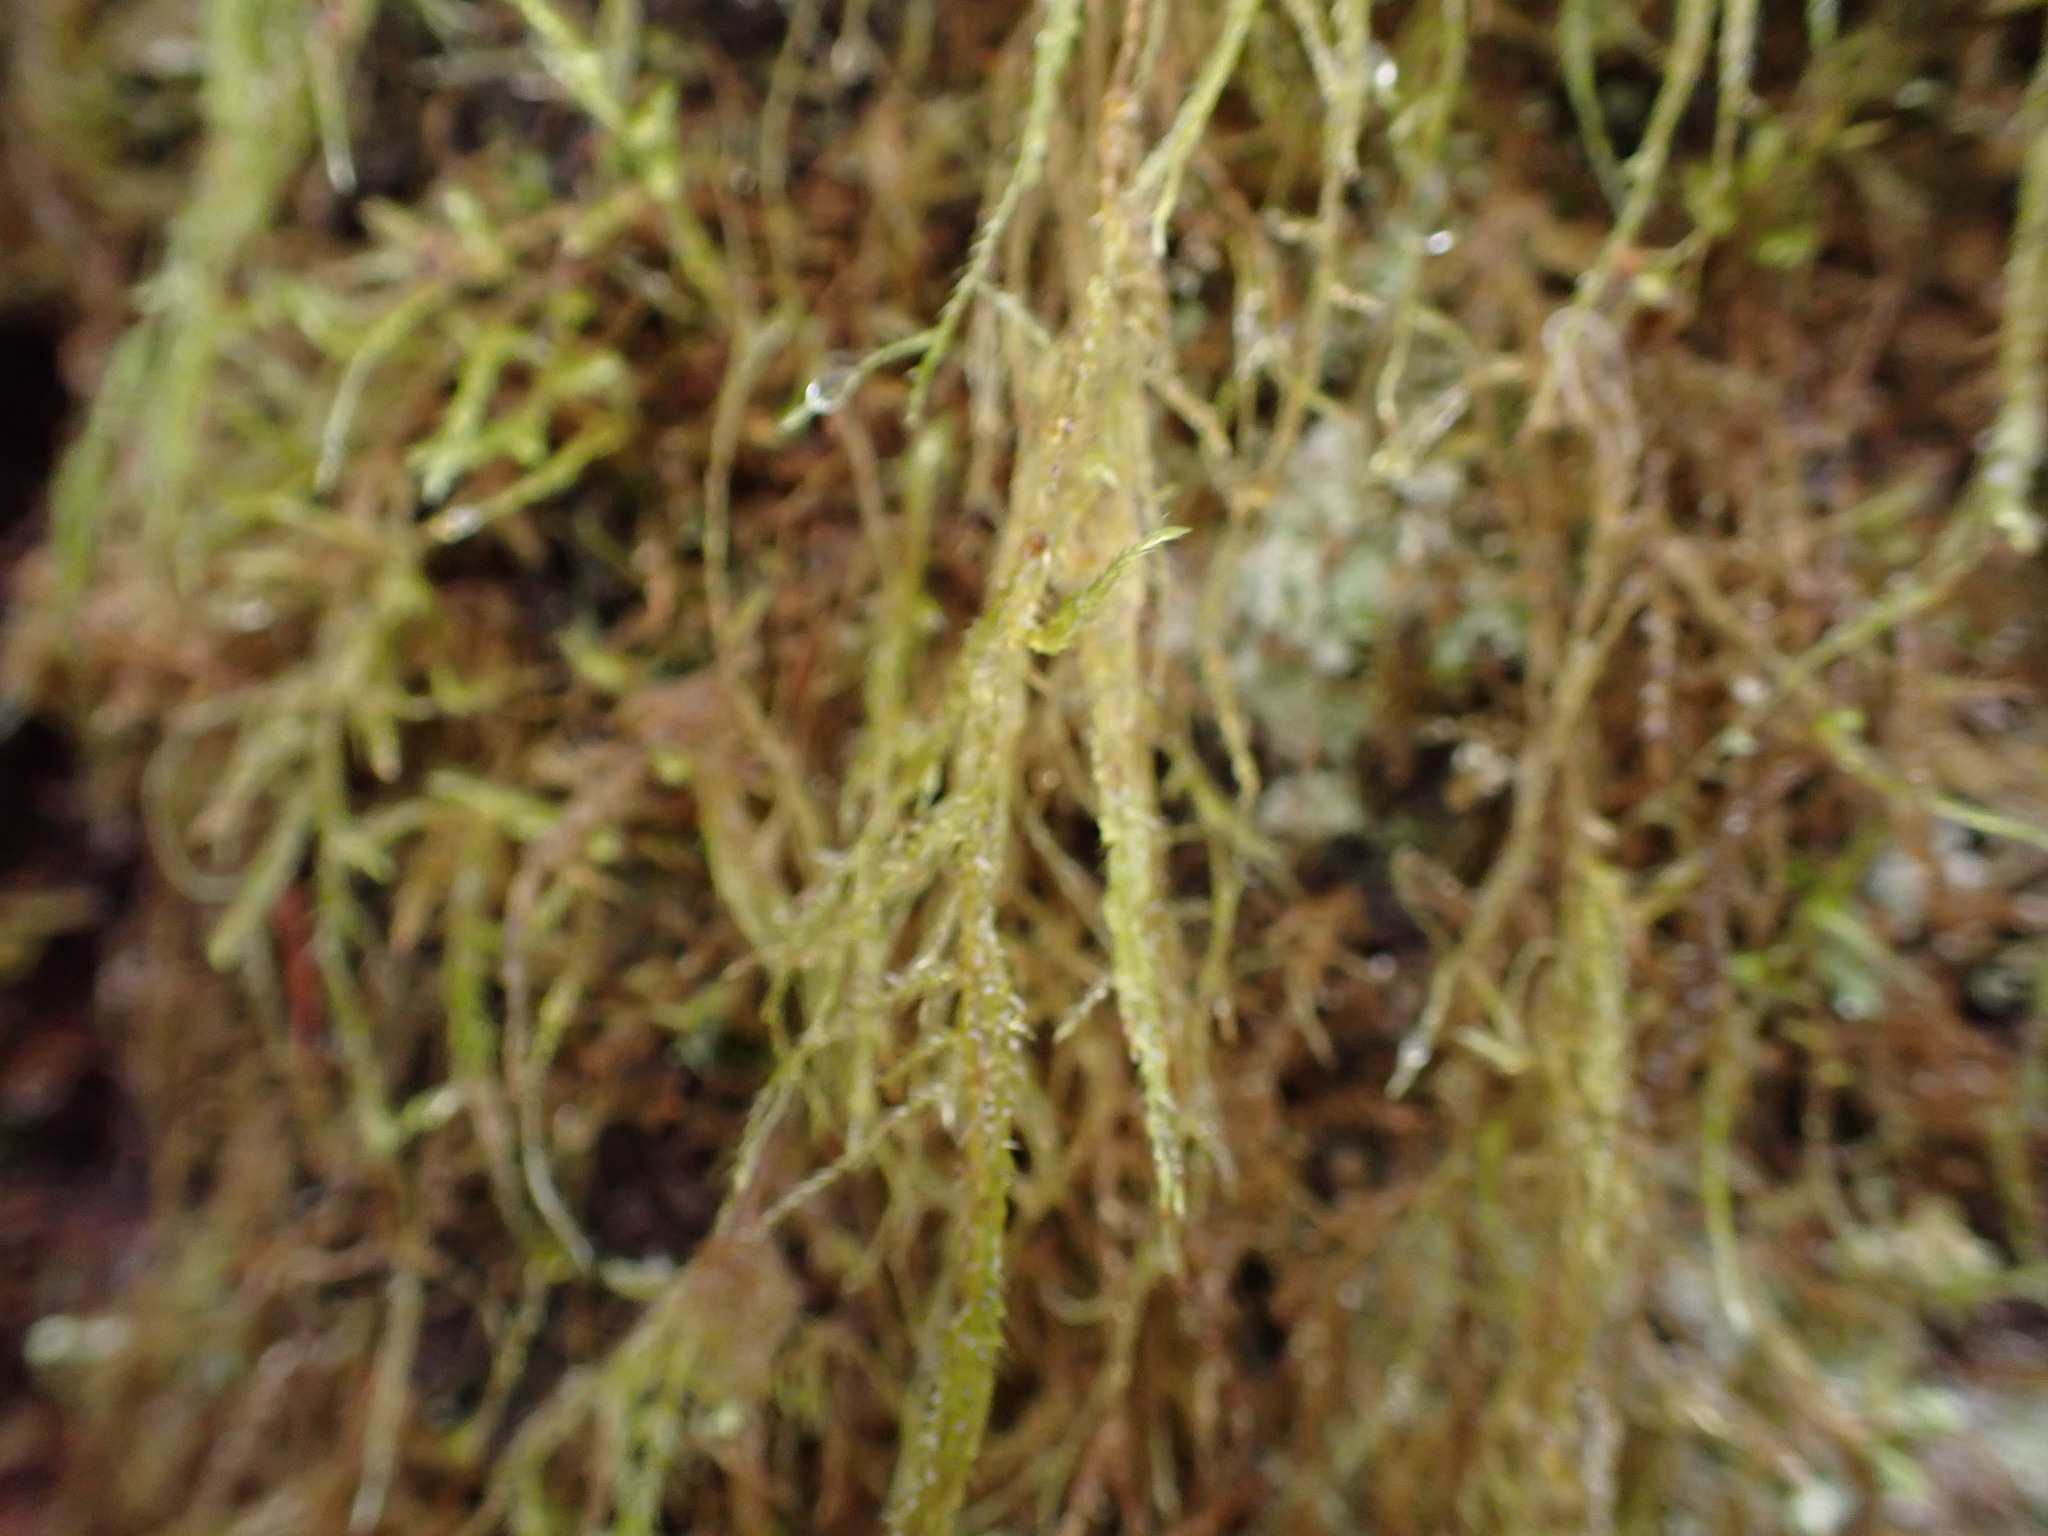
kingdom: Plantae
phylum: Bryophyta
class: Bryopsida
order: Hypnales
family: Lembophyllaceae
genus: Pseudisothecium
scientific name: Pseudisothecium stoloniferum
